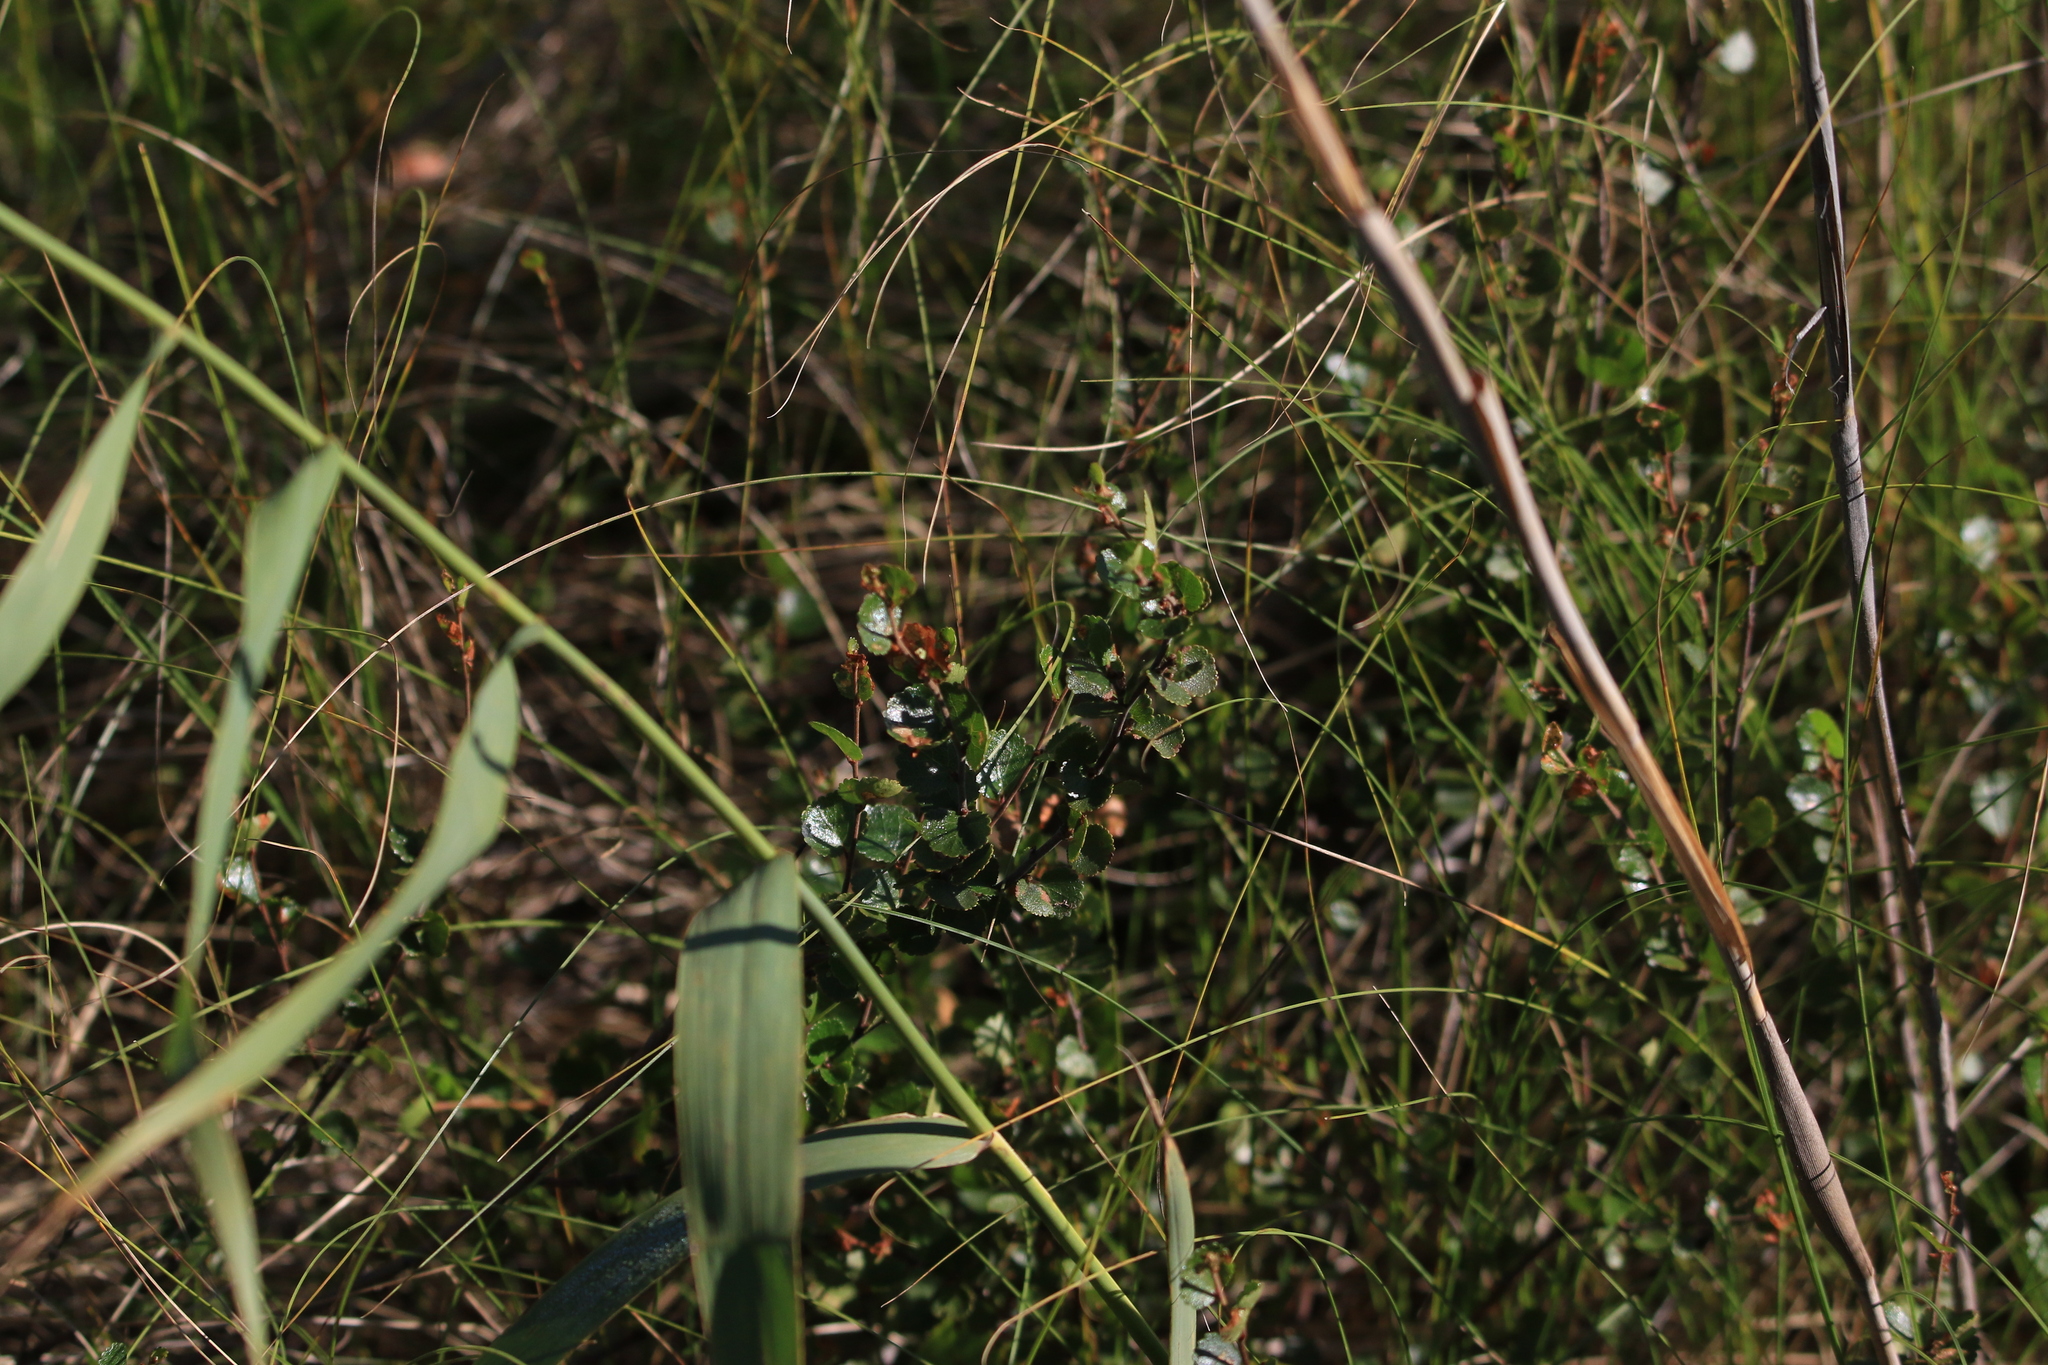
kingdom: Plantae
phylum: Tracheophyta
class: Magnoliopsida
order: Fagales
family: Betulaceae
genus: Betula
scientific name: Betula nana
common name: Arctic dwarf birch
